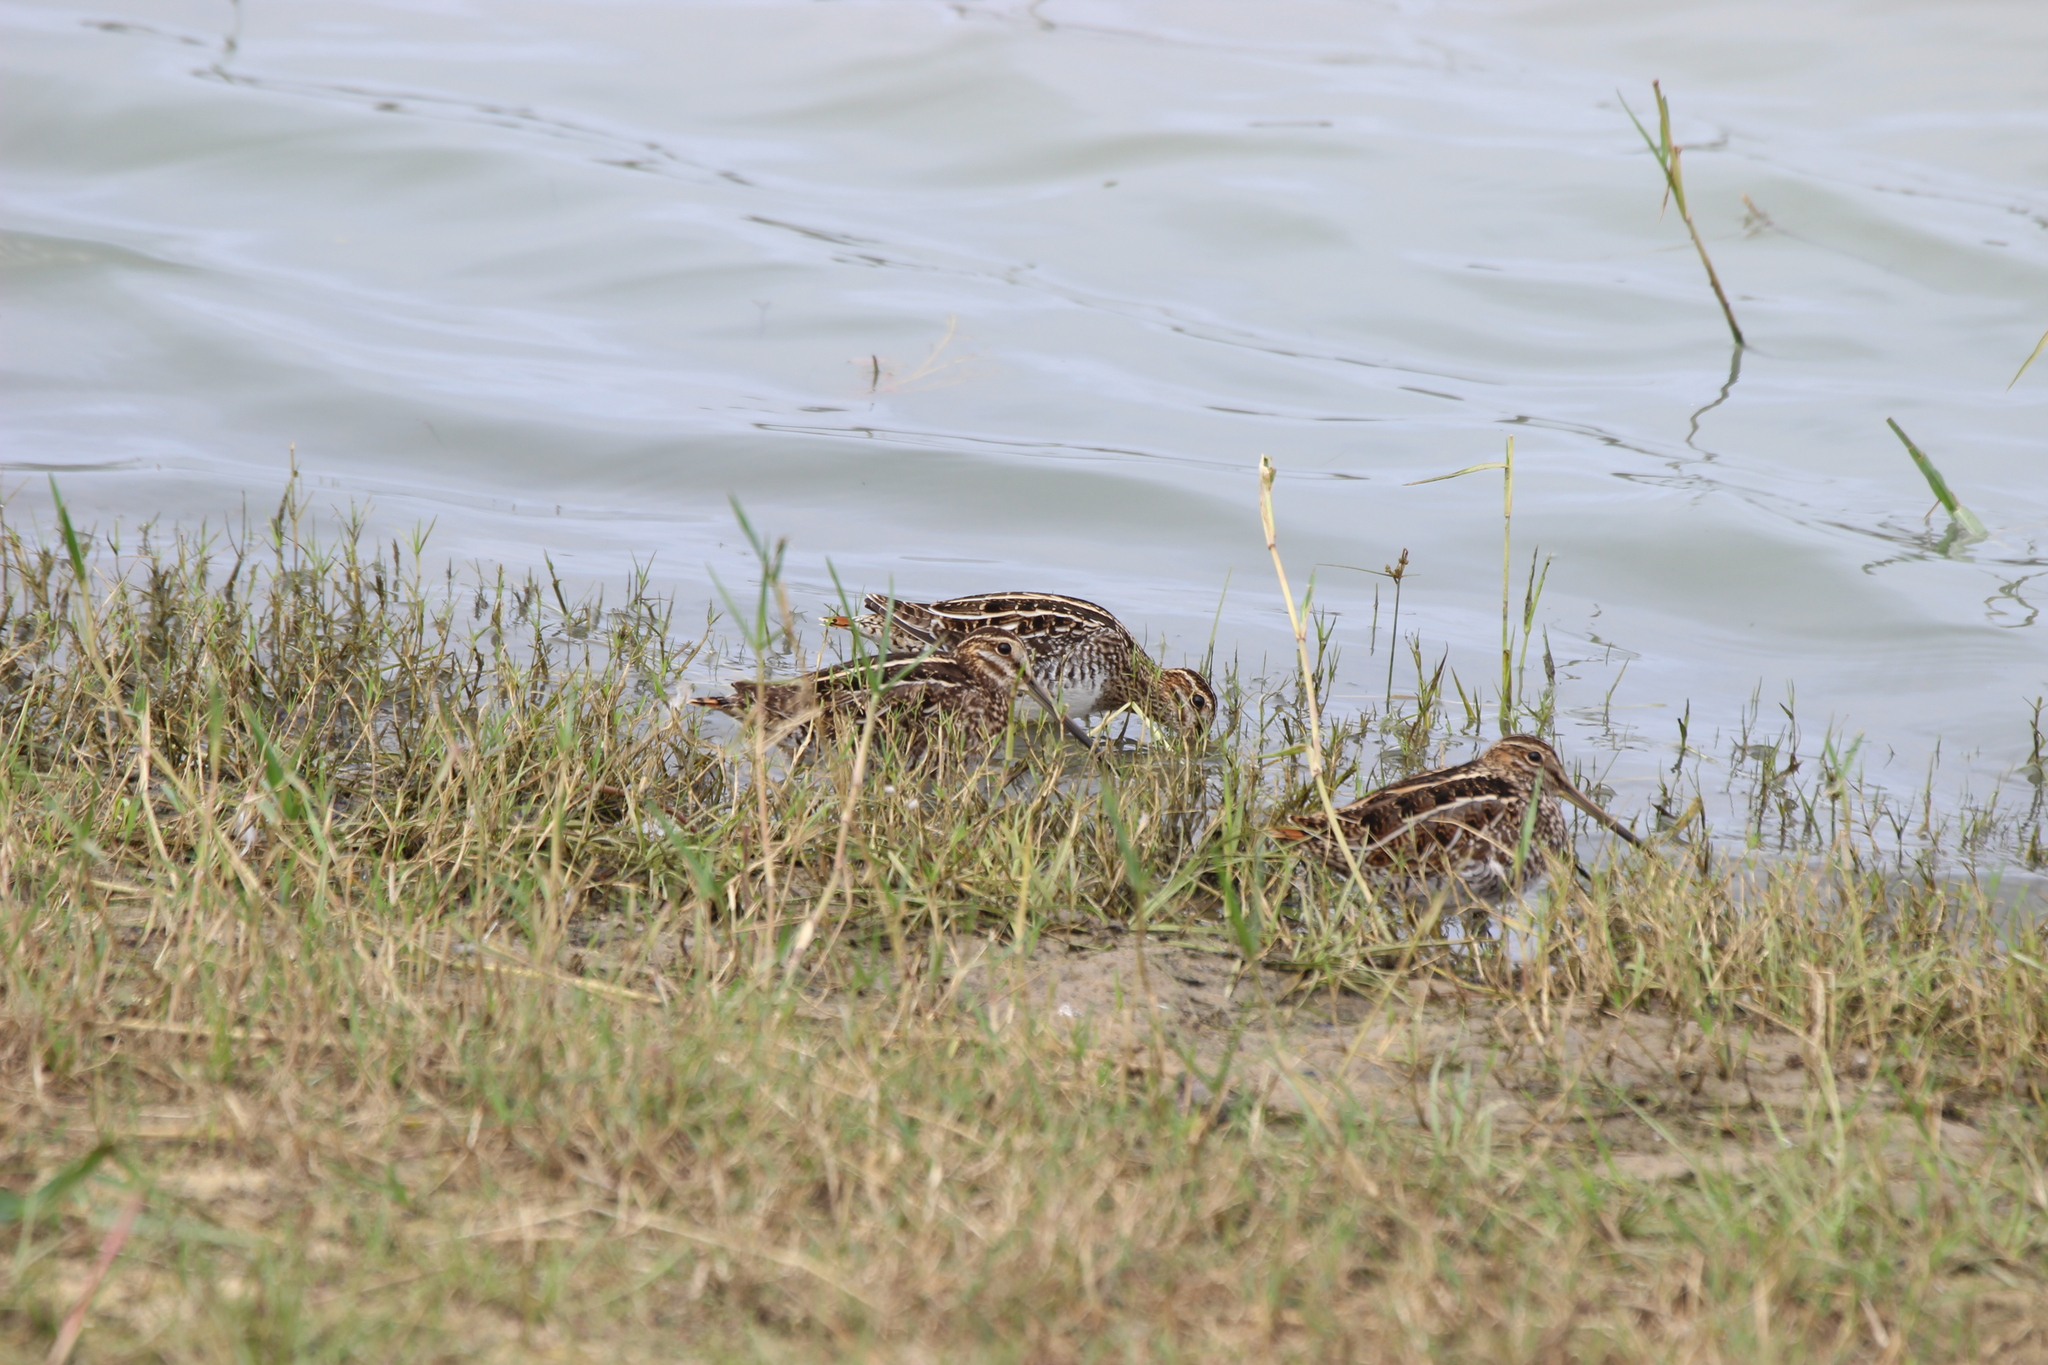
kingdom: Animalia
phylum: Chordata
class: Aves
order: Charadriiformes
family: Scolopacidae
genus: Gallinago
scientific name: Gallinago delicata
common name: Wilson's snipe
